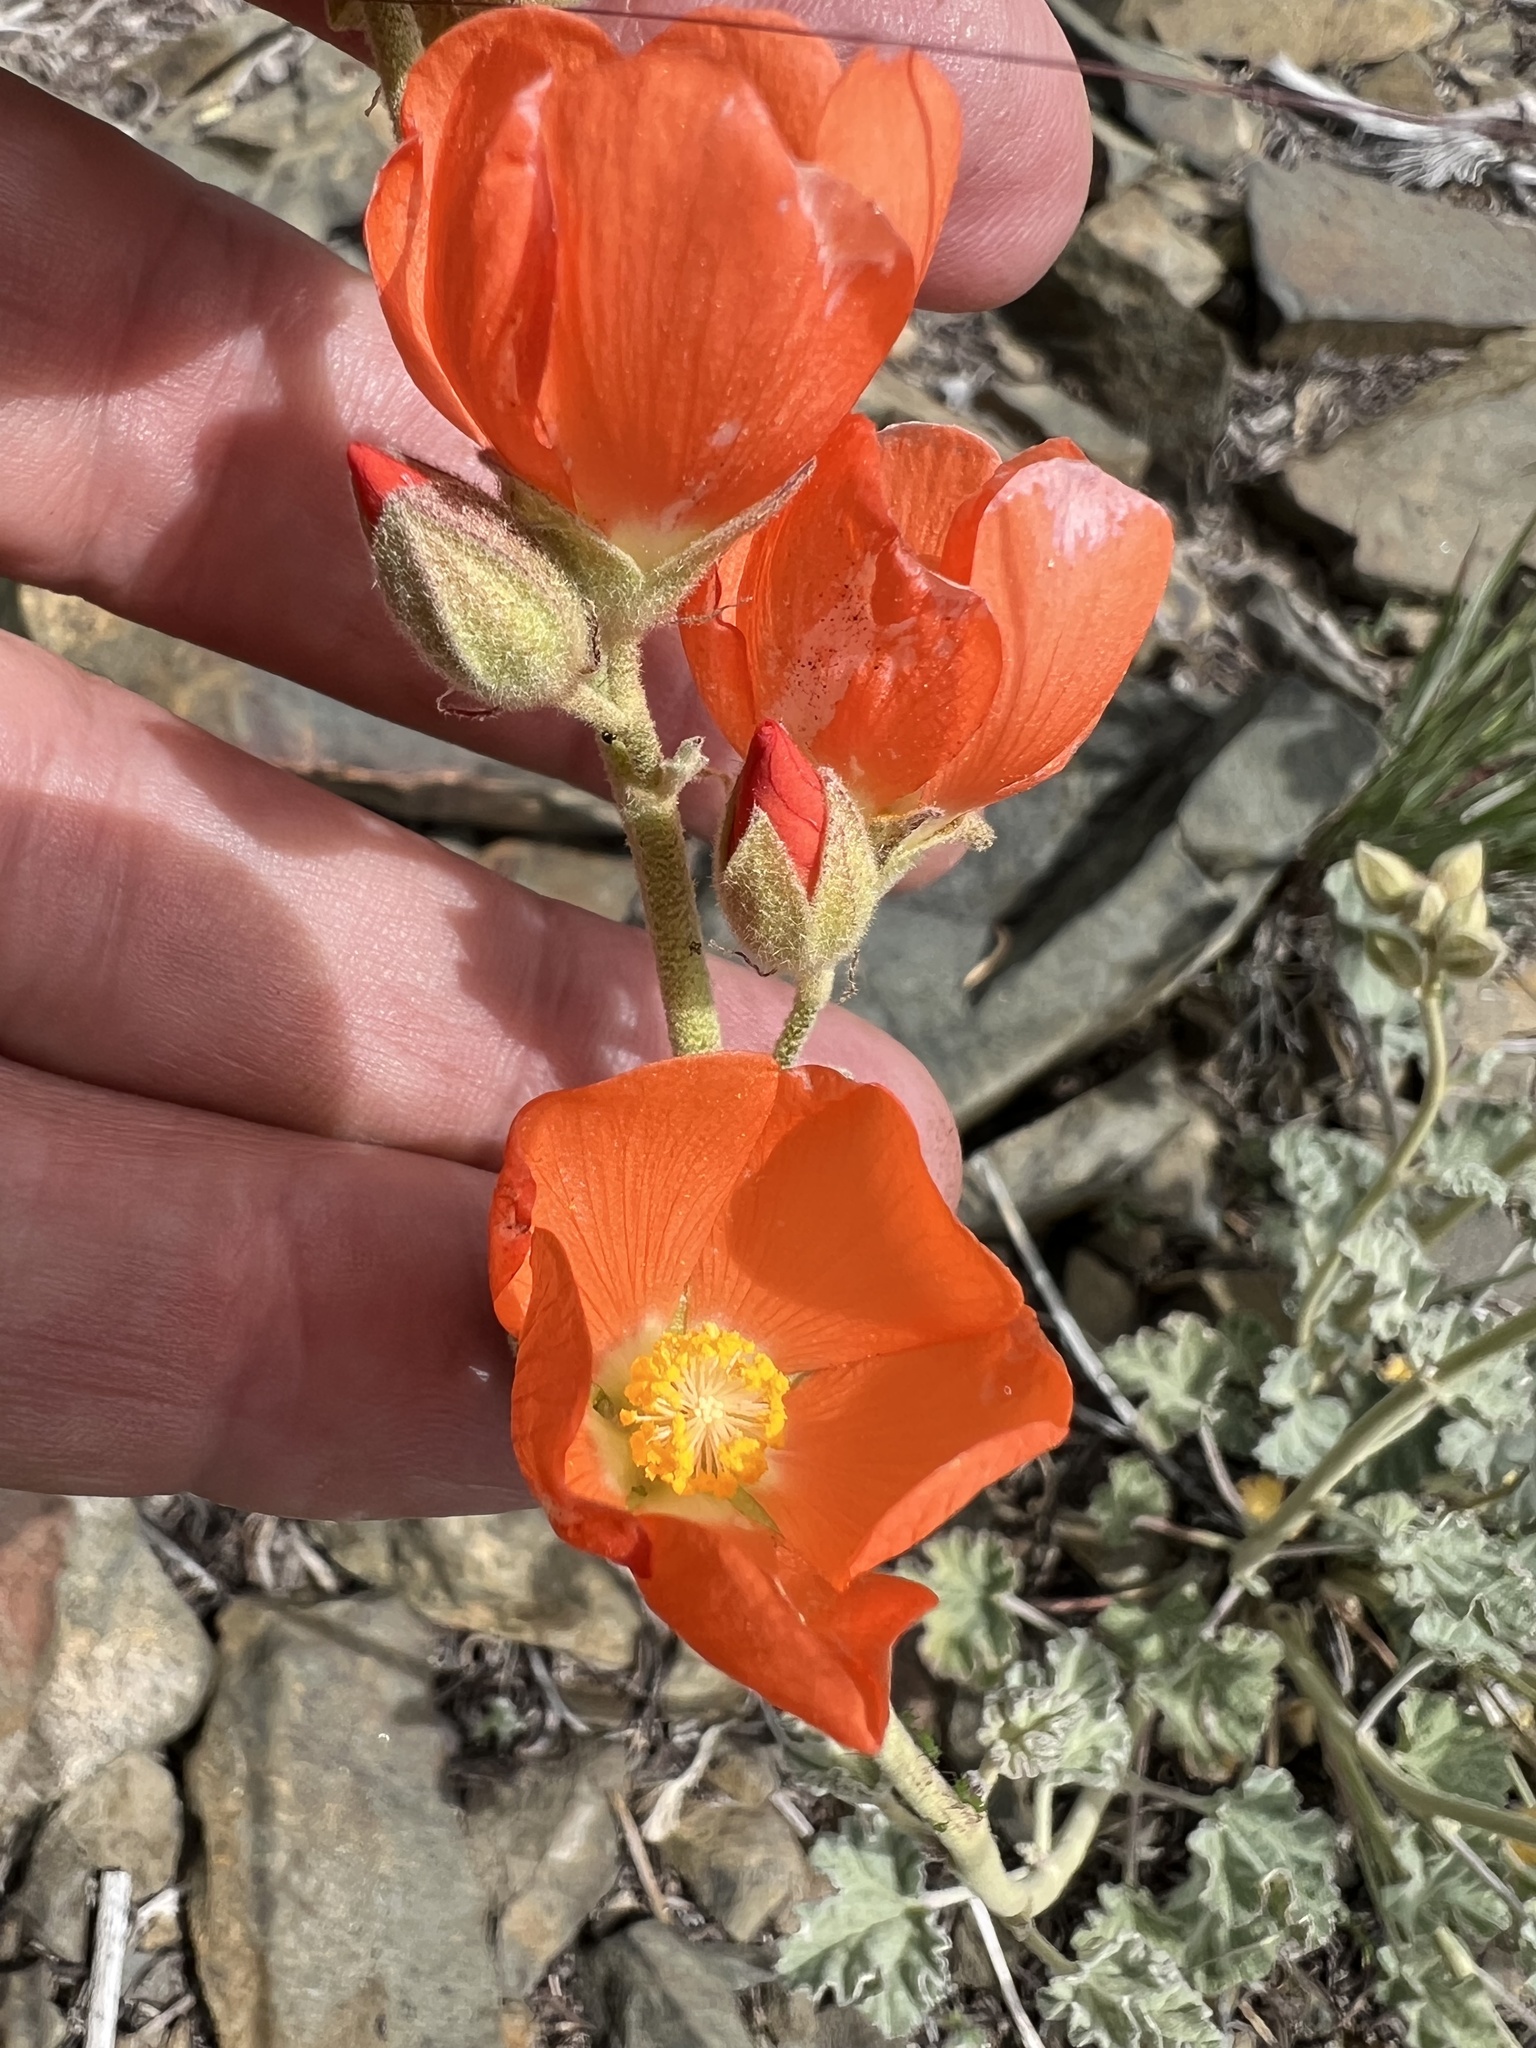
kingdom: Plantae
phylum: Tracheophyta
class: Magnoliopsida
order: Malvales
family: Malvaceae
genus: Sphaeralcea
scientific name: Sphaeralcea ambigua
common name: Apricot globe-mallow
